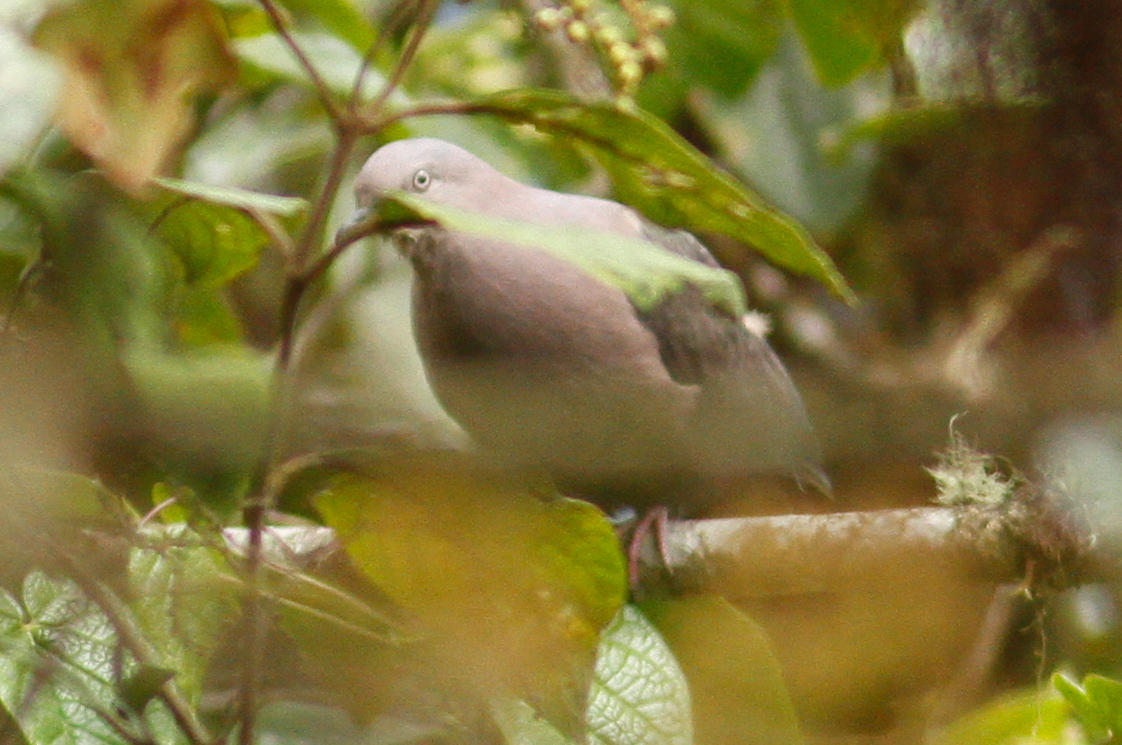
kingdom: Animalia
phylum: Chordata
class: Aves
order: Columbiformes
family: Columbidae
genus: Patagioenas
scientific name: Patagioenas plumbea
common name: Plumbeous pigeon
